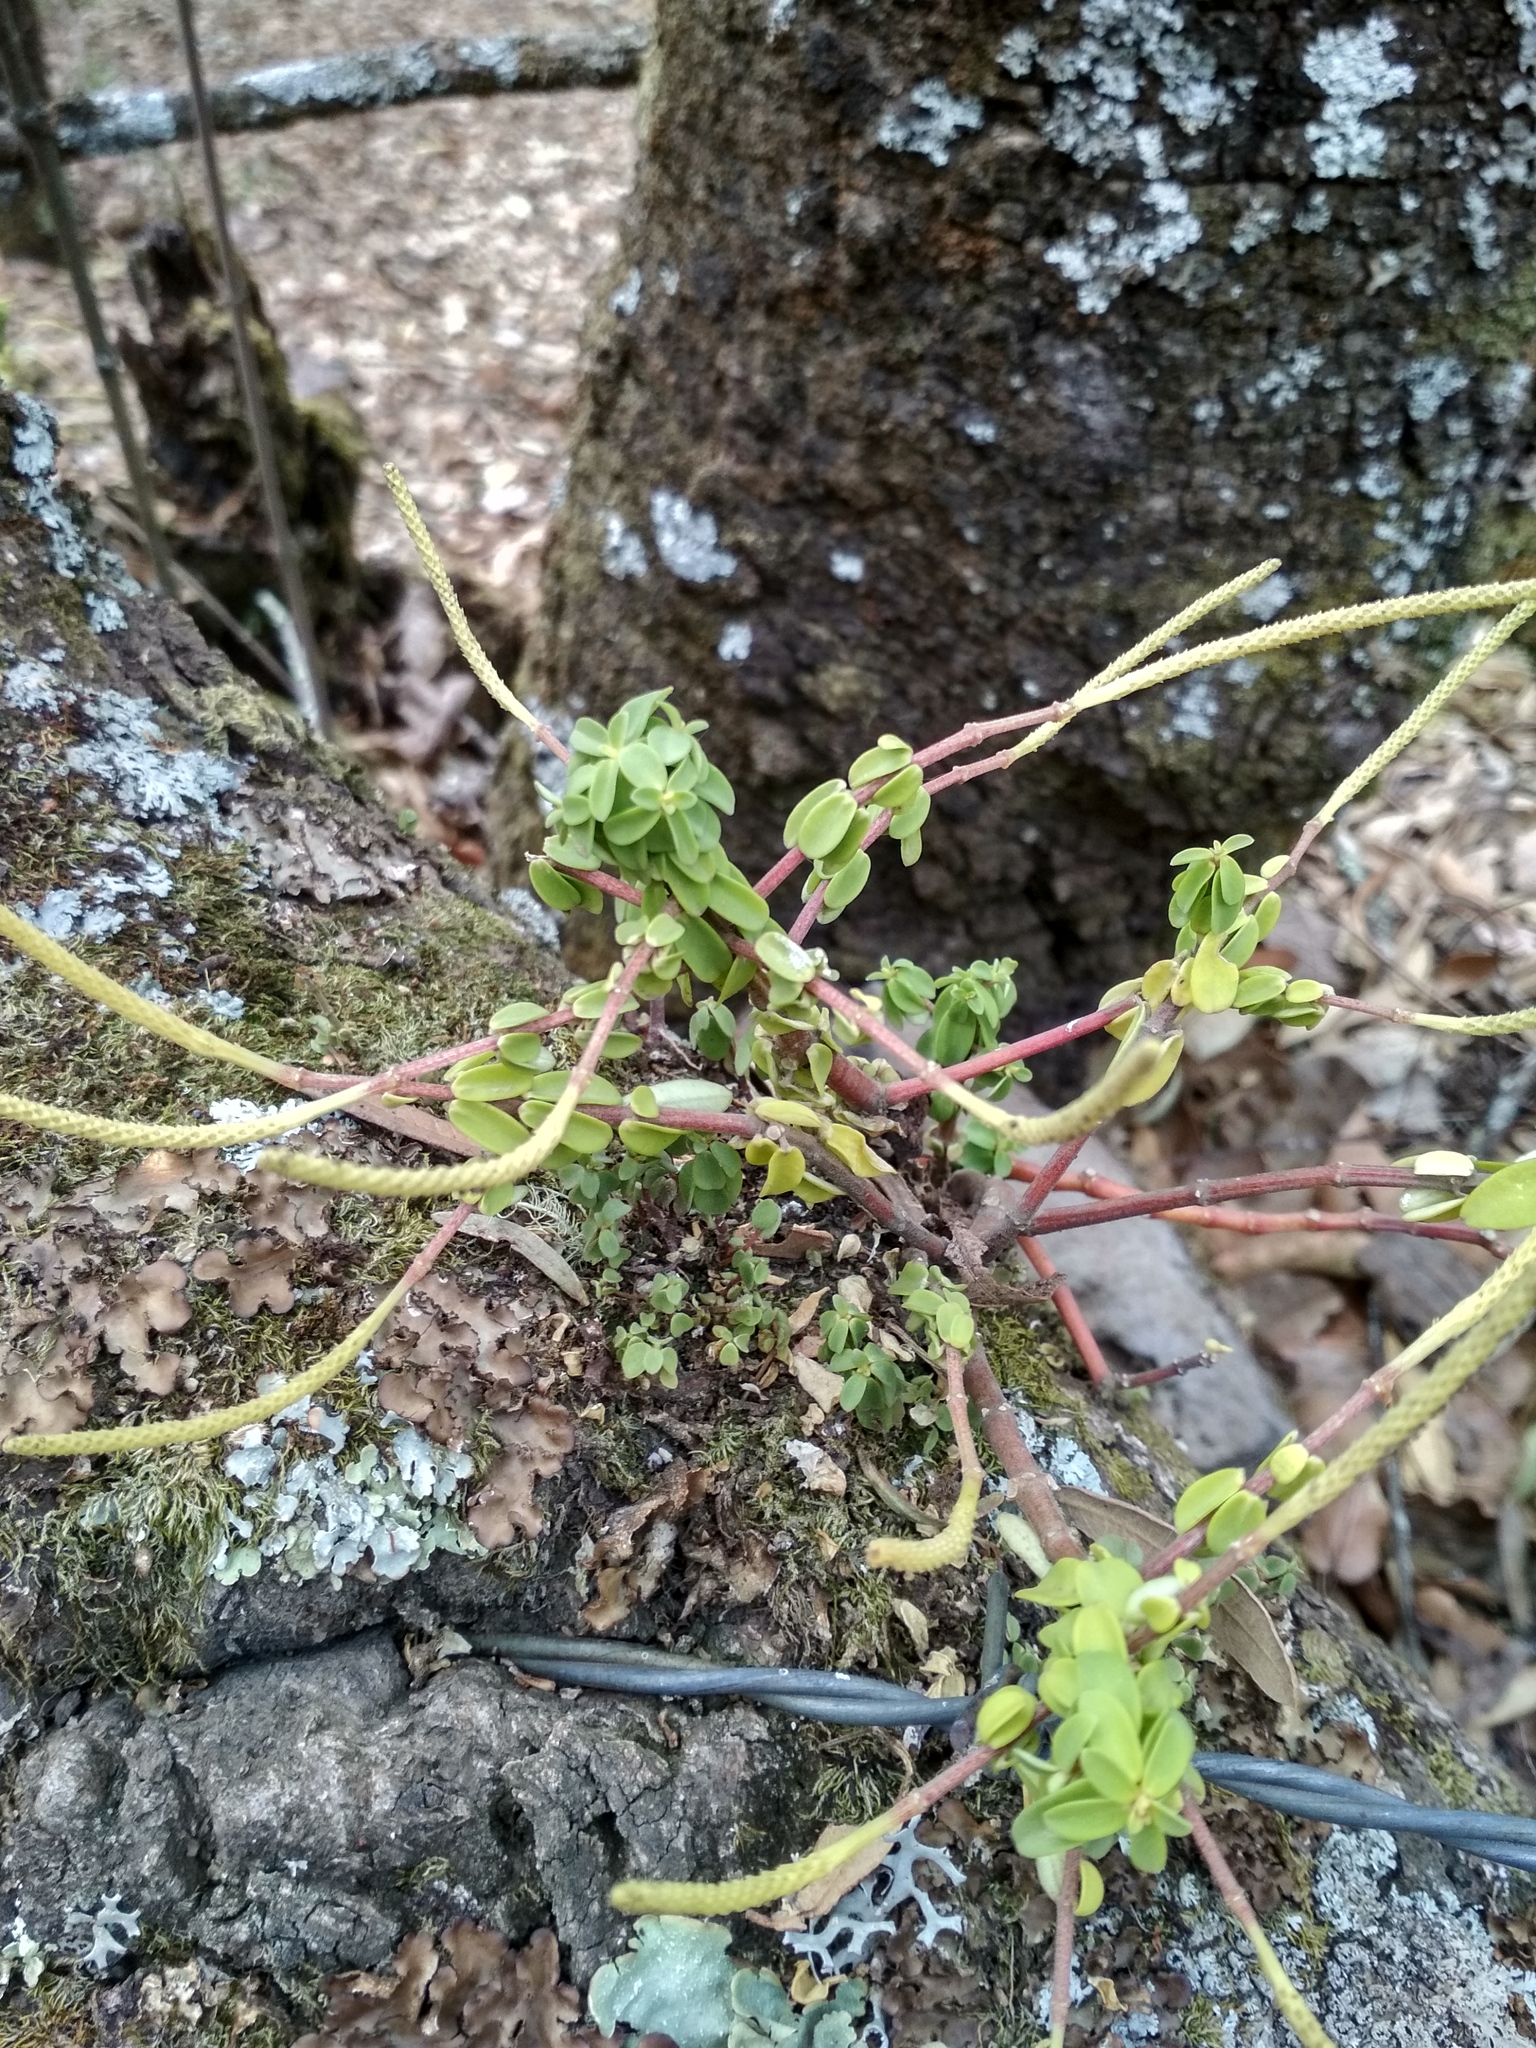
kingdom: Plantae
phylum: Tracheophyta
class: Magnoliopsida
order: Piperales
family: Piperaceae
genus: Peperomia
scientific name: Peperomia leptophylla
